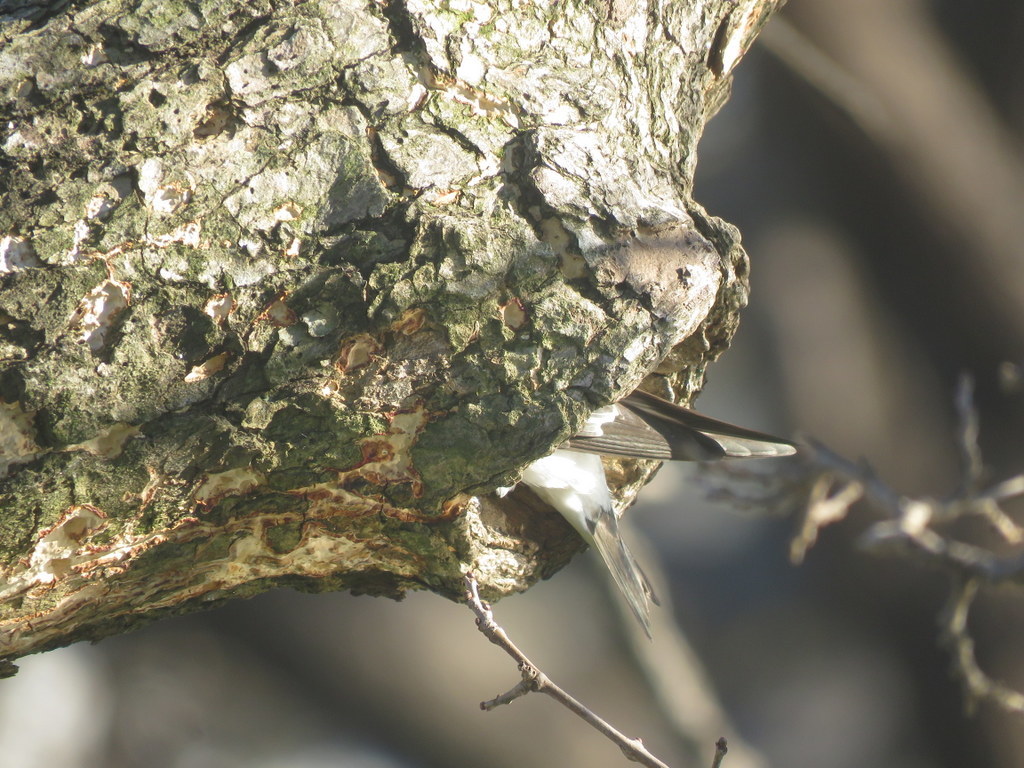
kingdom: Animalia
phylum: Chordata
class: Aves
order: Passeriformes
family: Hirundinidae
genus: Tachycineta
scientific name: Tachycineta leucorrhoa
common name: White-rumped swallow
